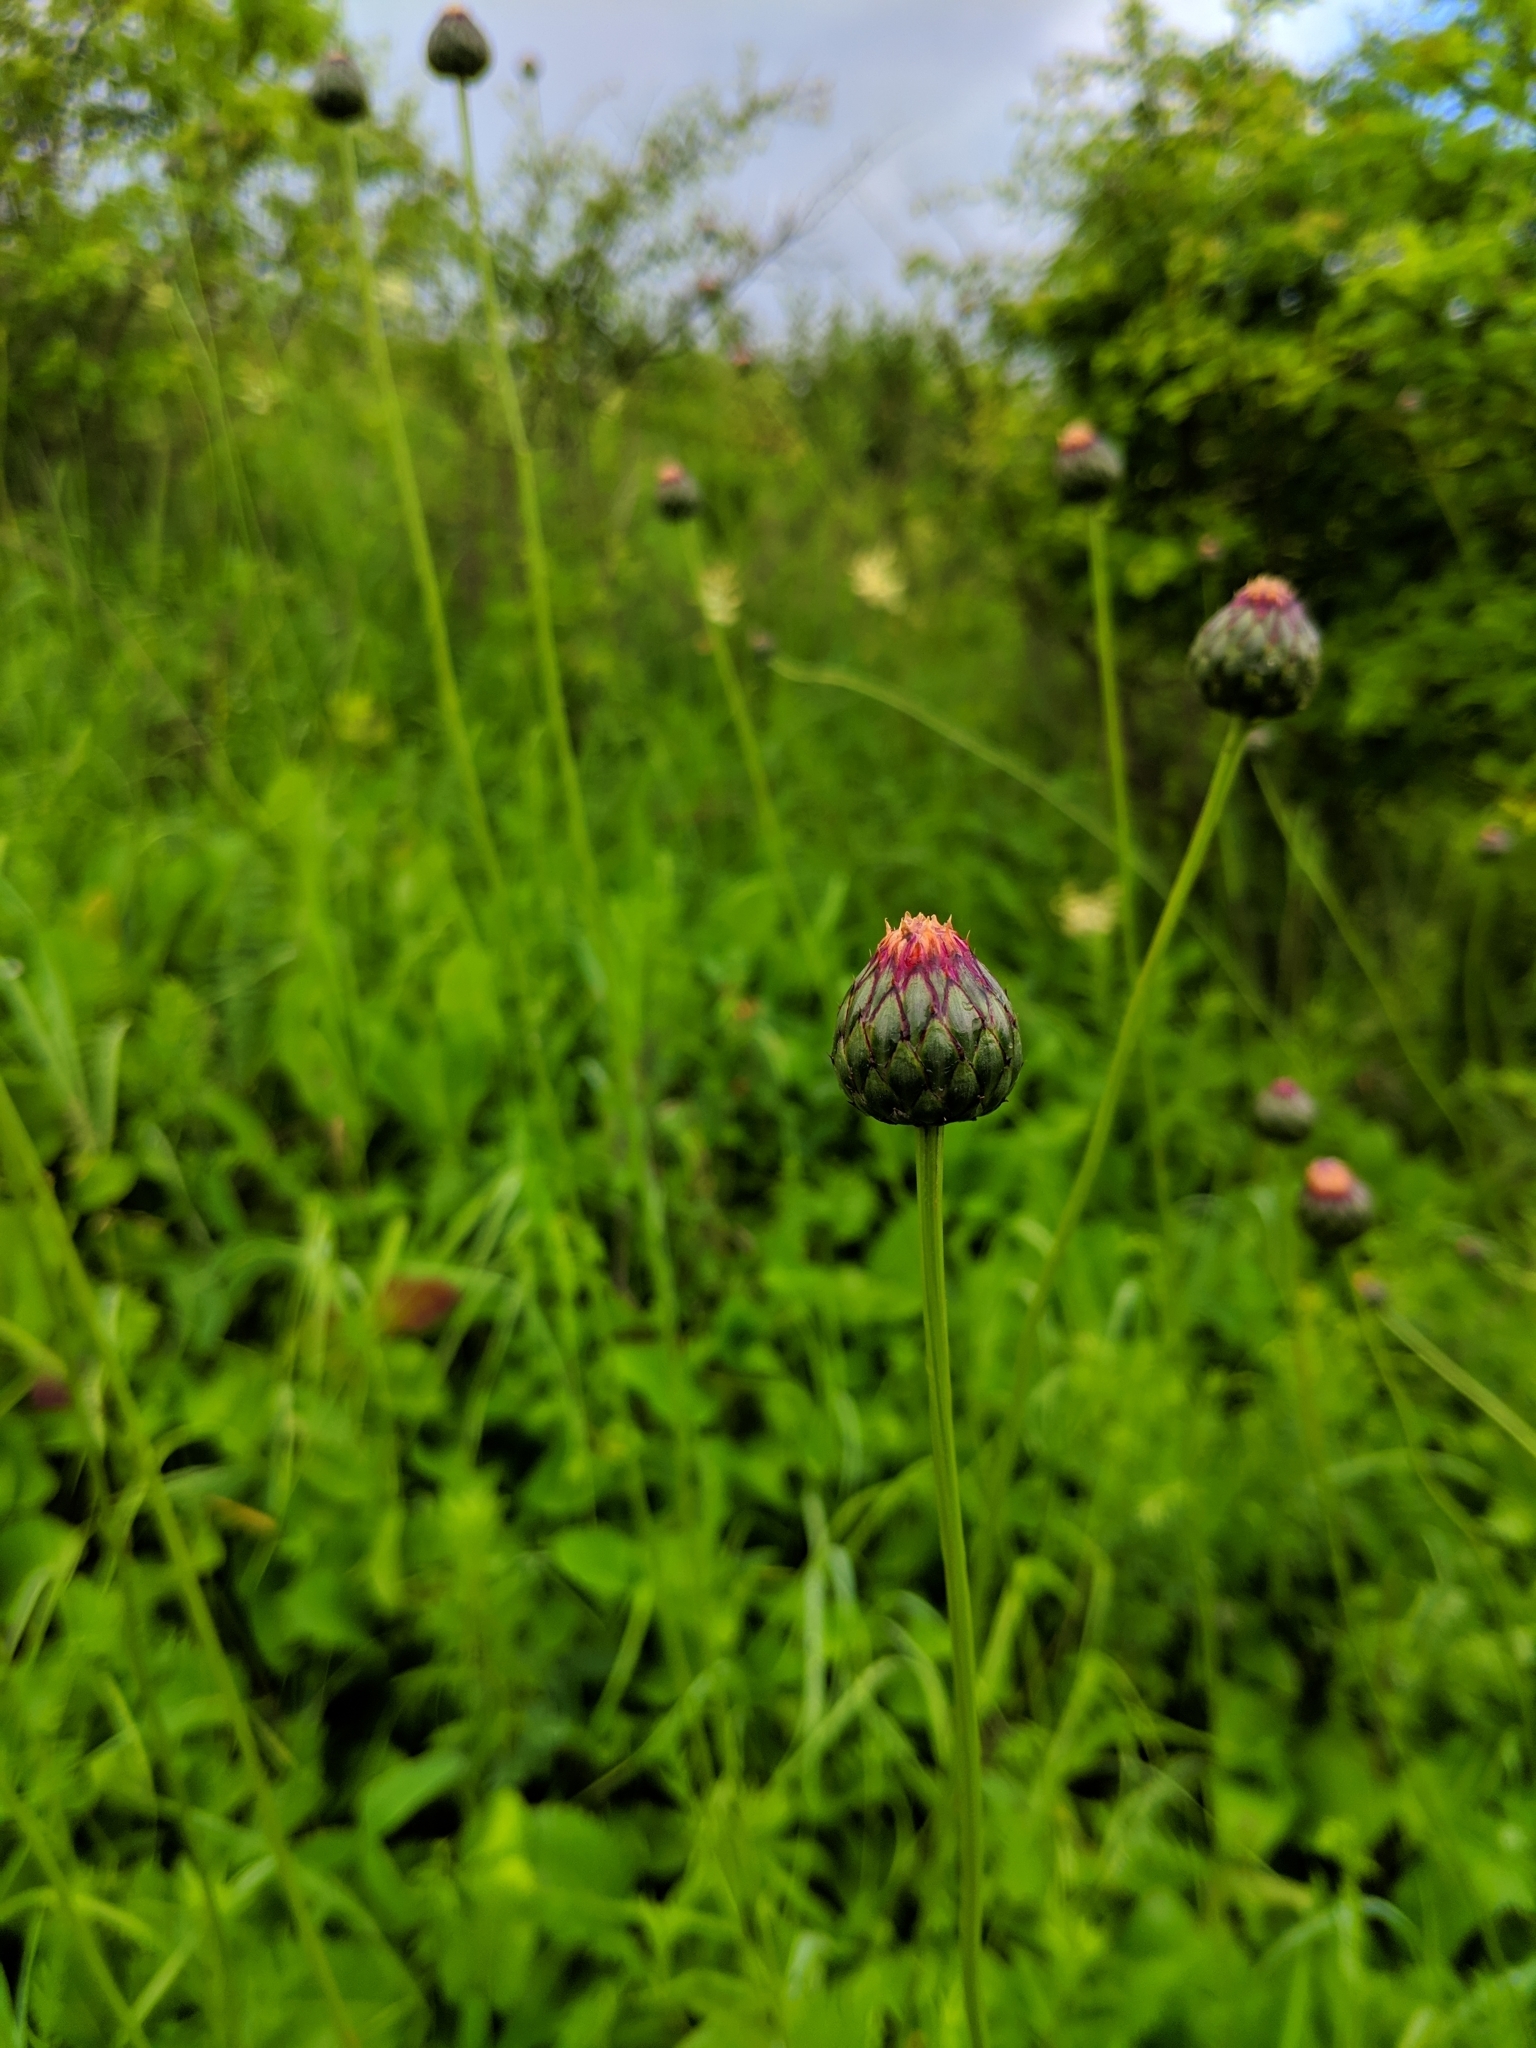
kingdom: Plantae
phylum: Tracheophyta
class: Magnoliopsida
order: Asterales
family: Asteraceae
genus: Klasea
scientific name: Klasea lycopifolia
